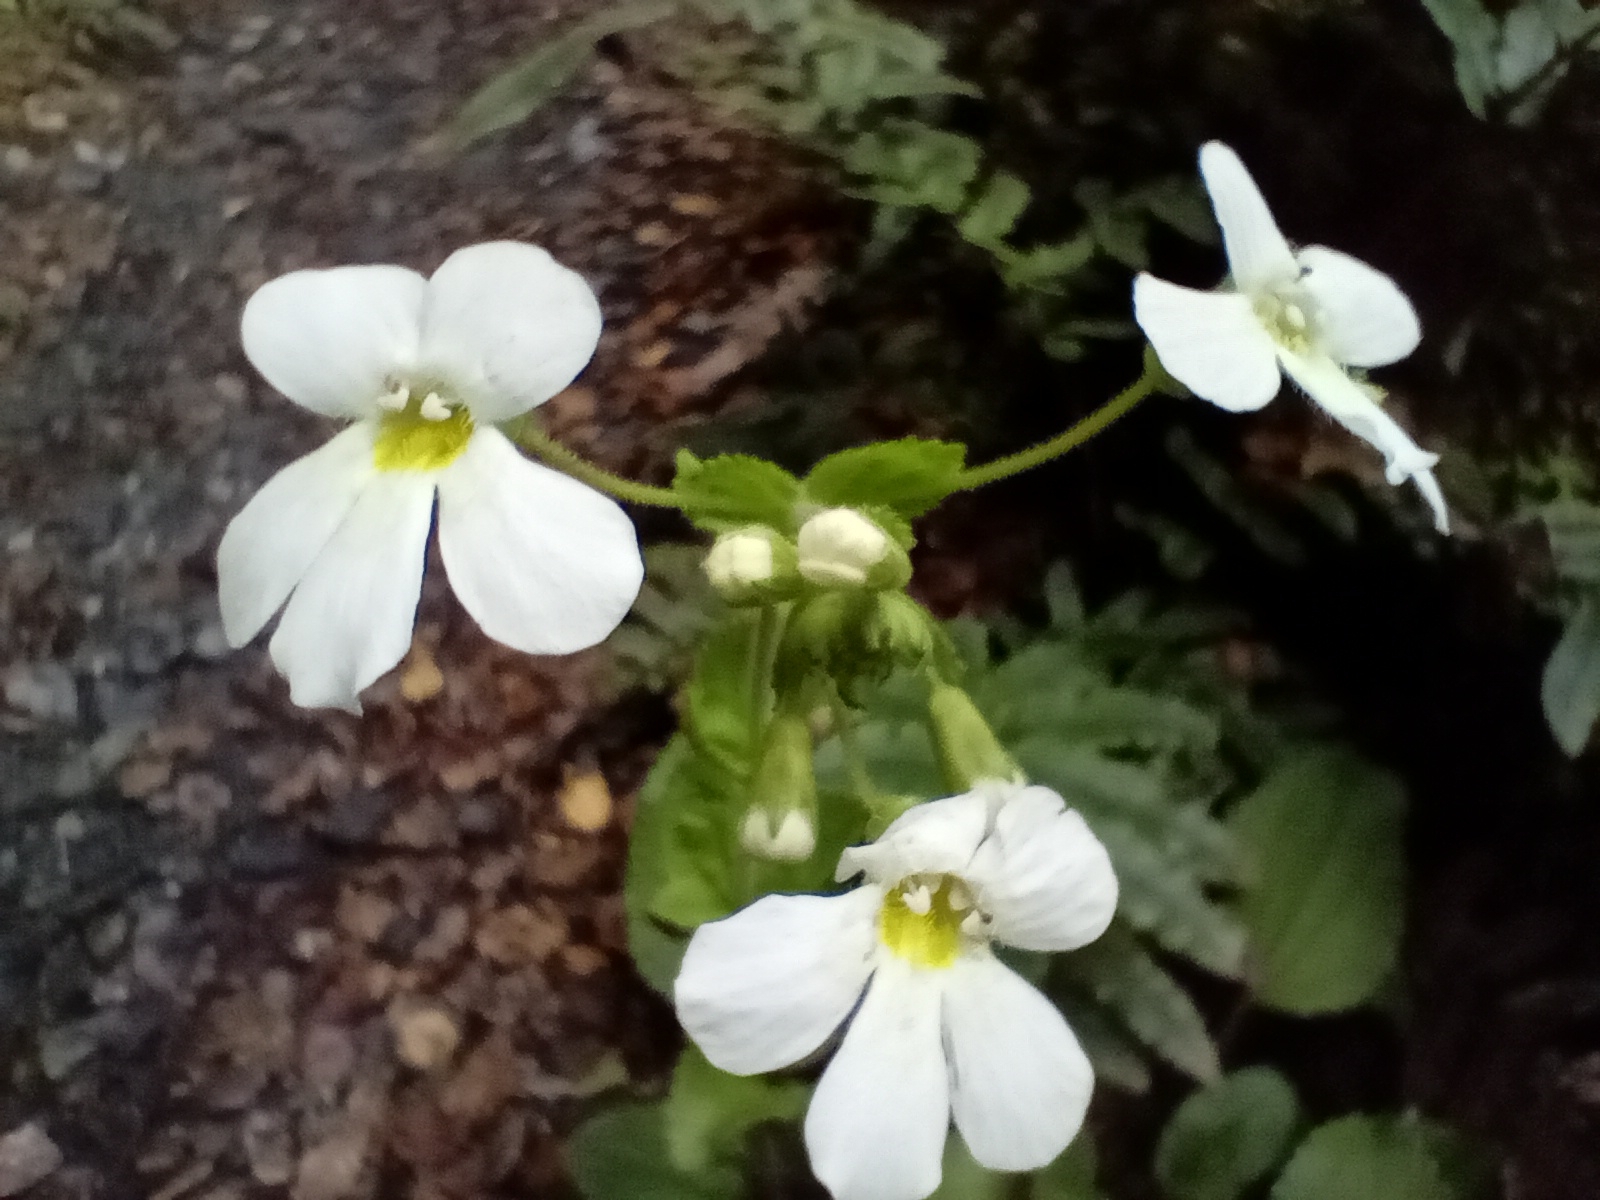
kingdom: Plantae
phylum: Tracheophyta
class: Magnoliopsida
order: Lamiales
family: Plantaginaceae
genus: Ourisia
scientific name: Ourisia macrophylla
